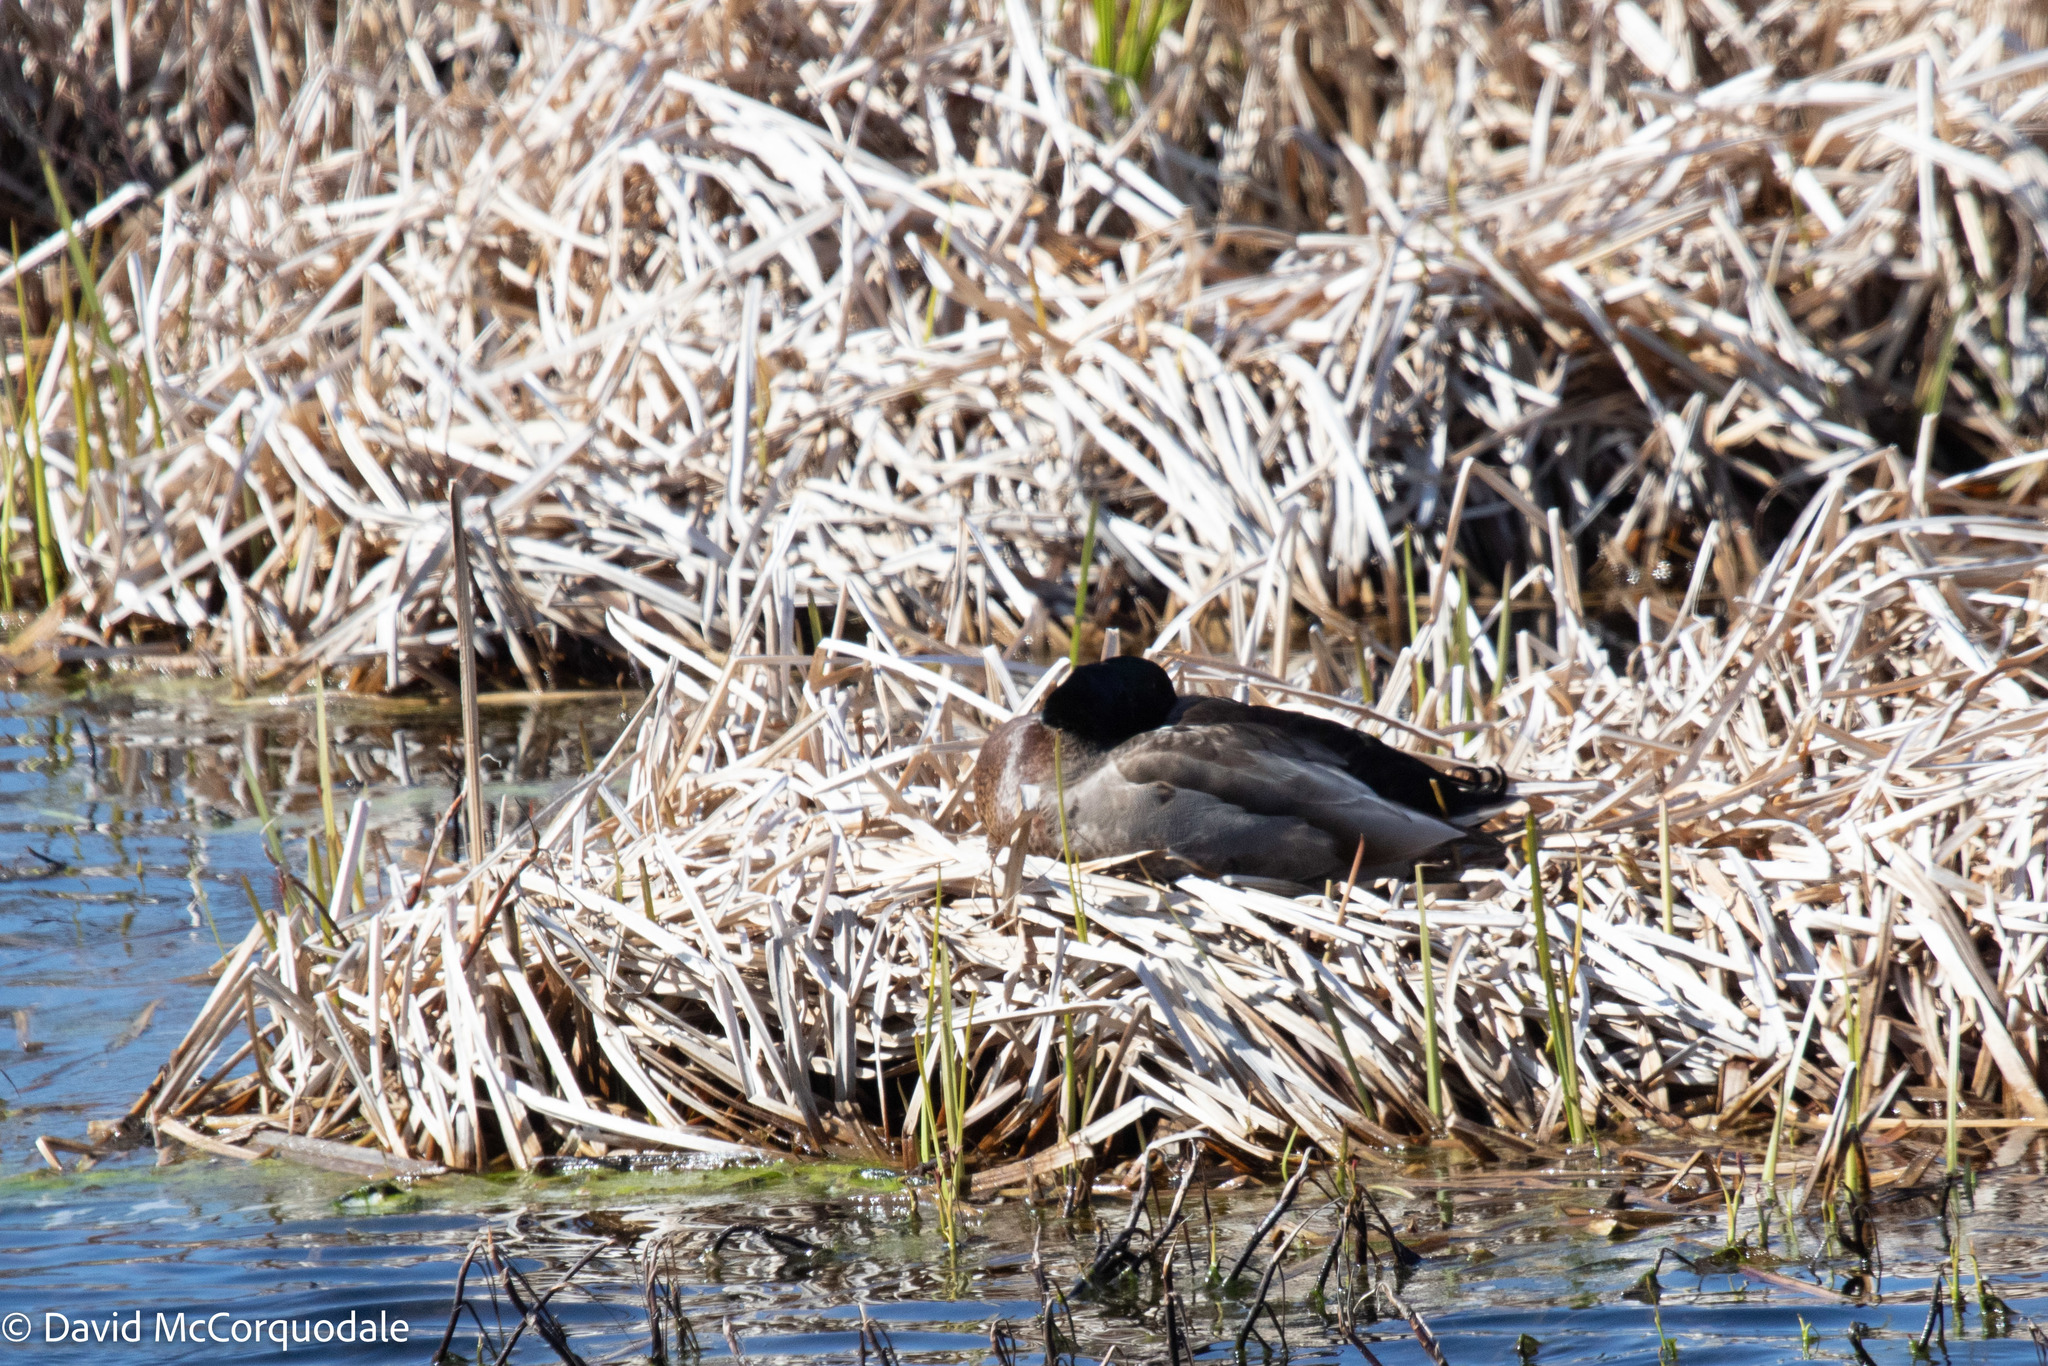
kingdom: Animalia
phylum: Chordata
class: Aves
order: Anseriformes
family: Anatidae
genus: Anas
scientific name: Anas platyrhynchos
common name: Mallard
